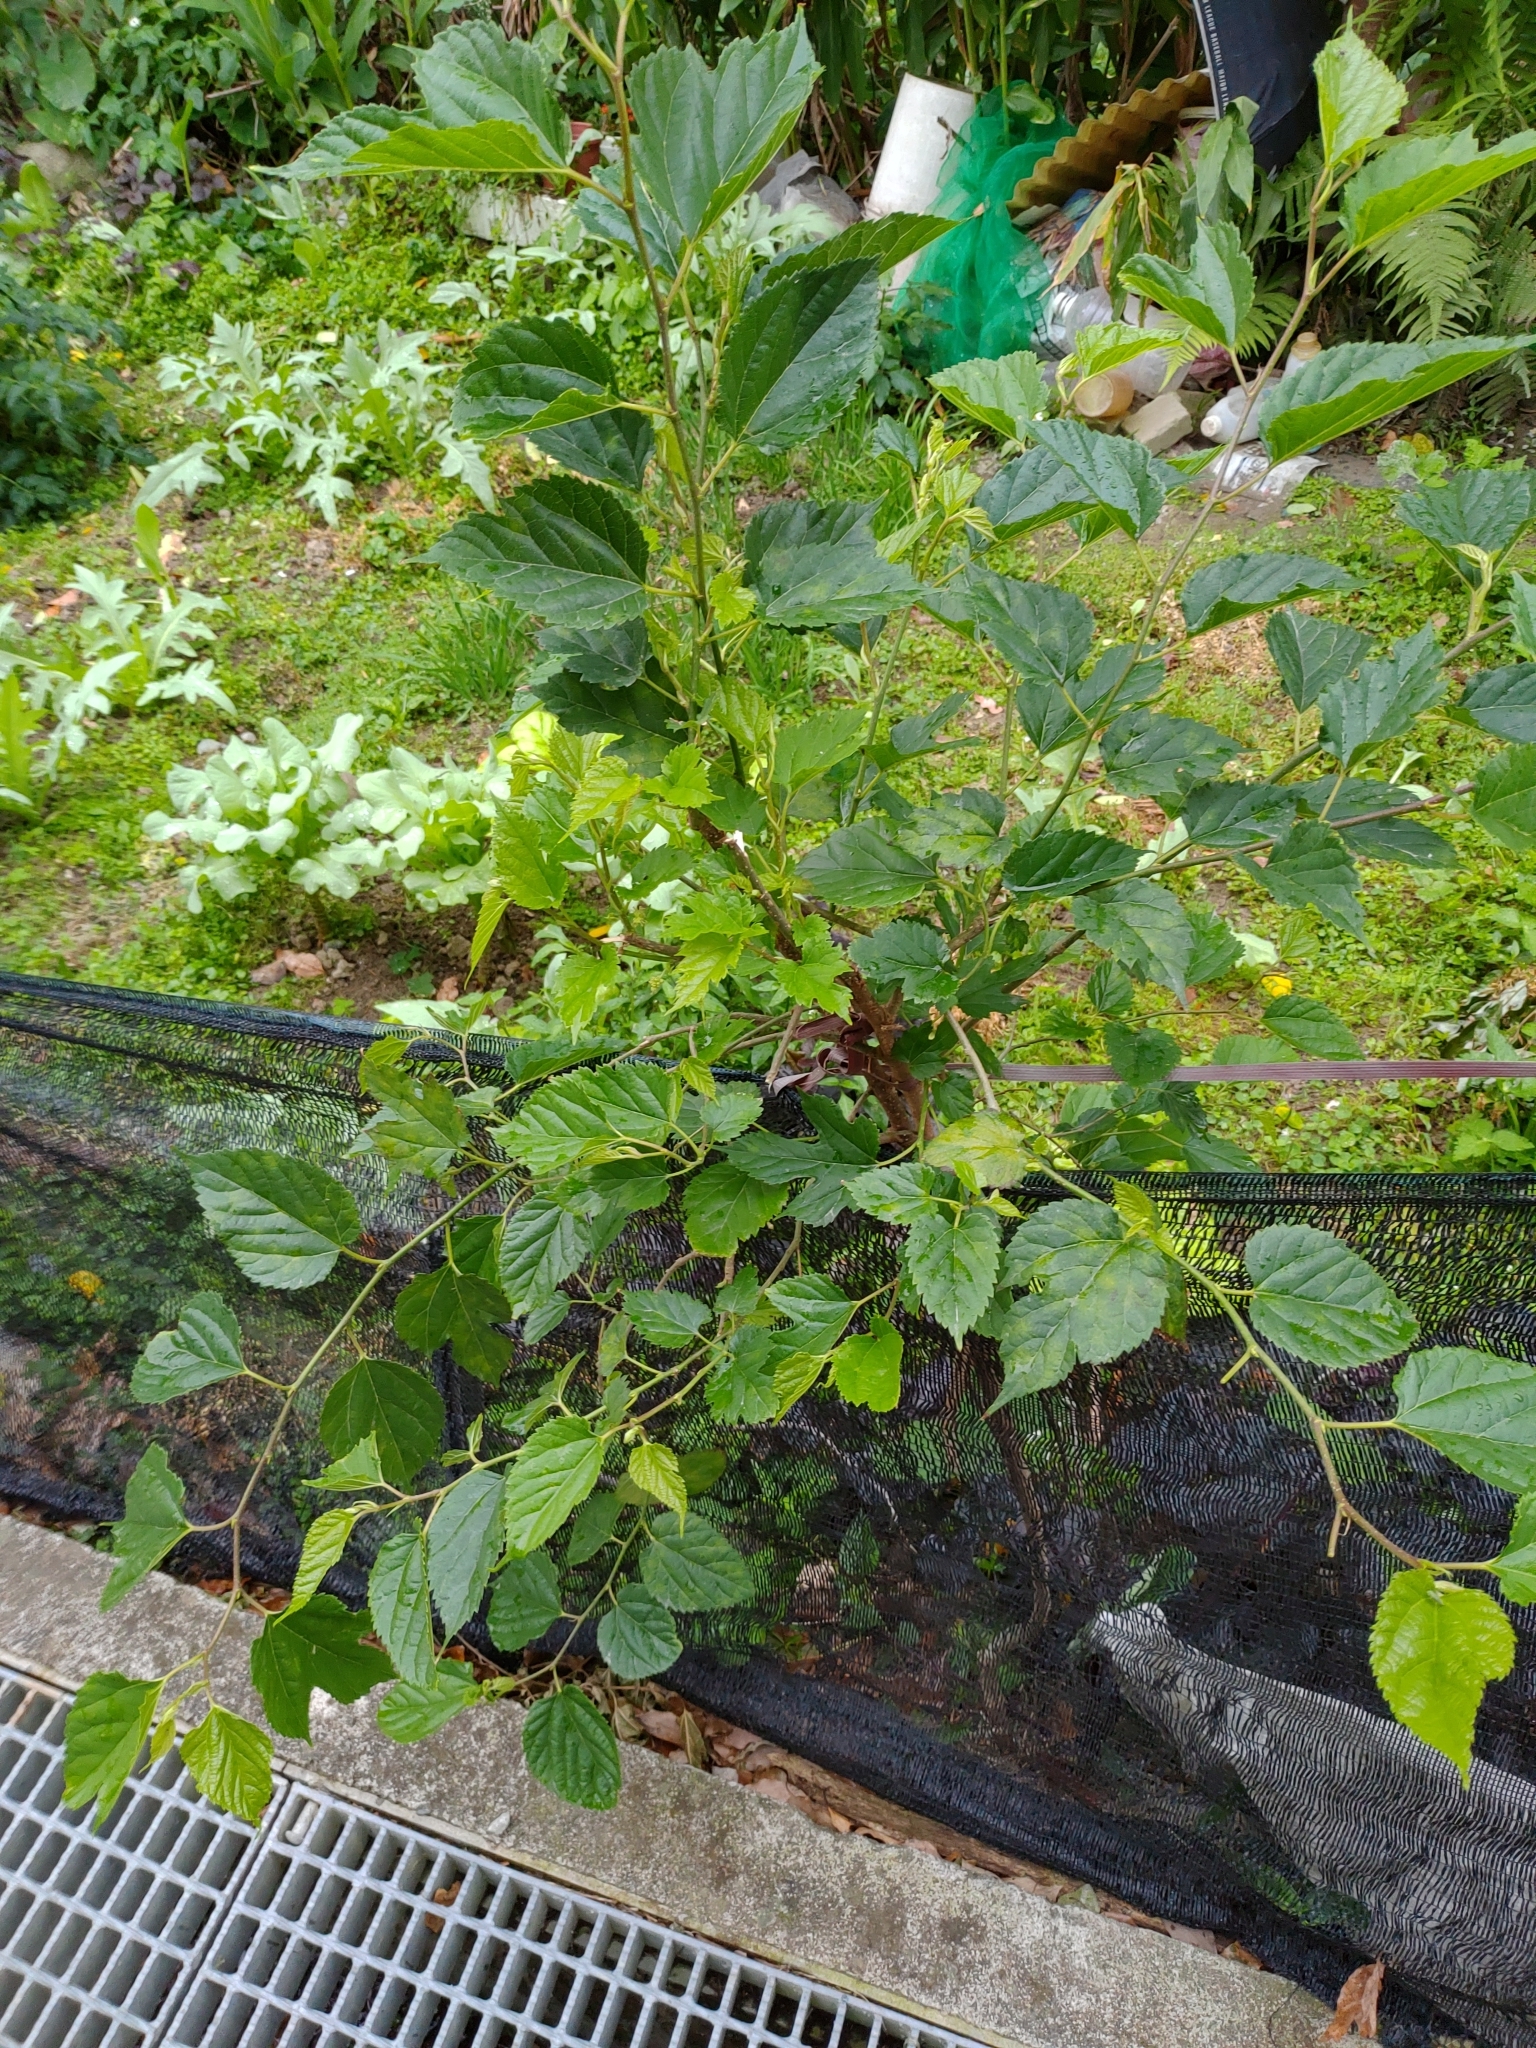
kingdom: Plantae
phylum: Tracheophyta
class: Magnoliopsida
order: Rosales
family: Moraceae
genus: Morus
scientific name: Morus indica
